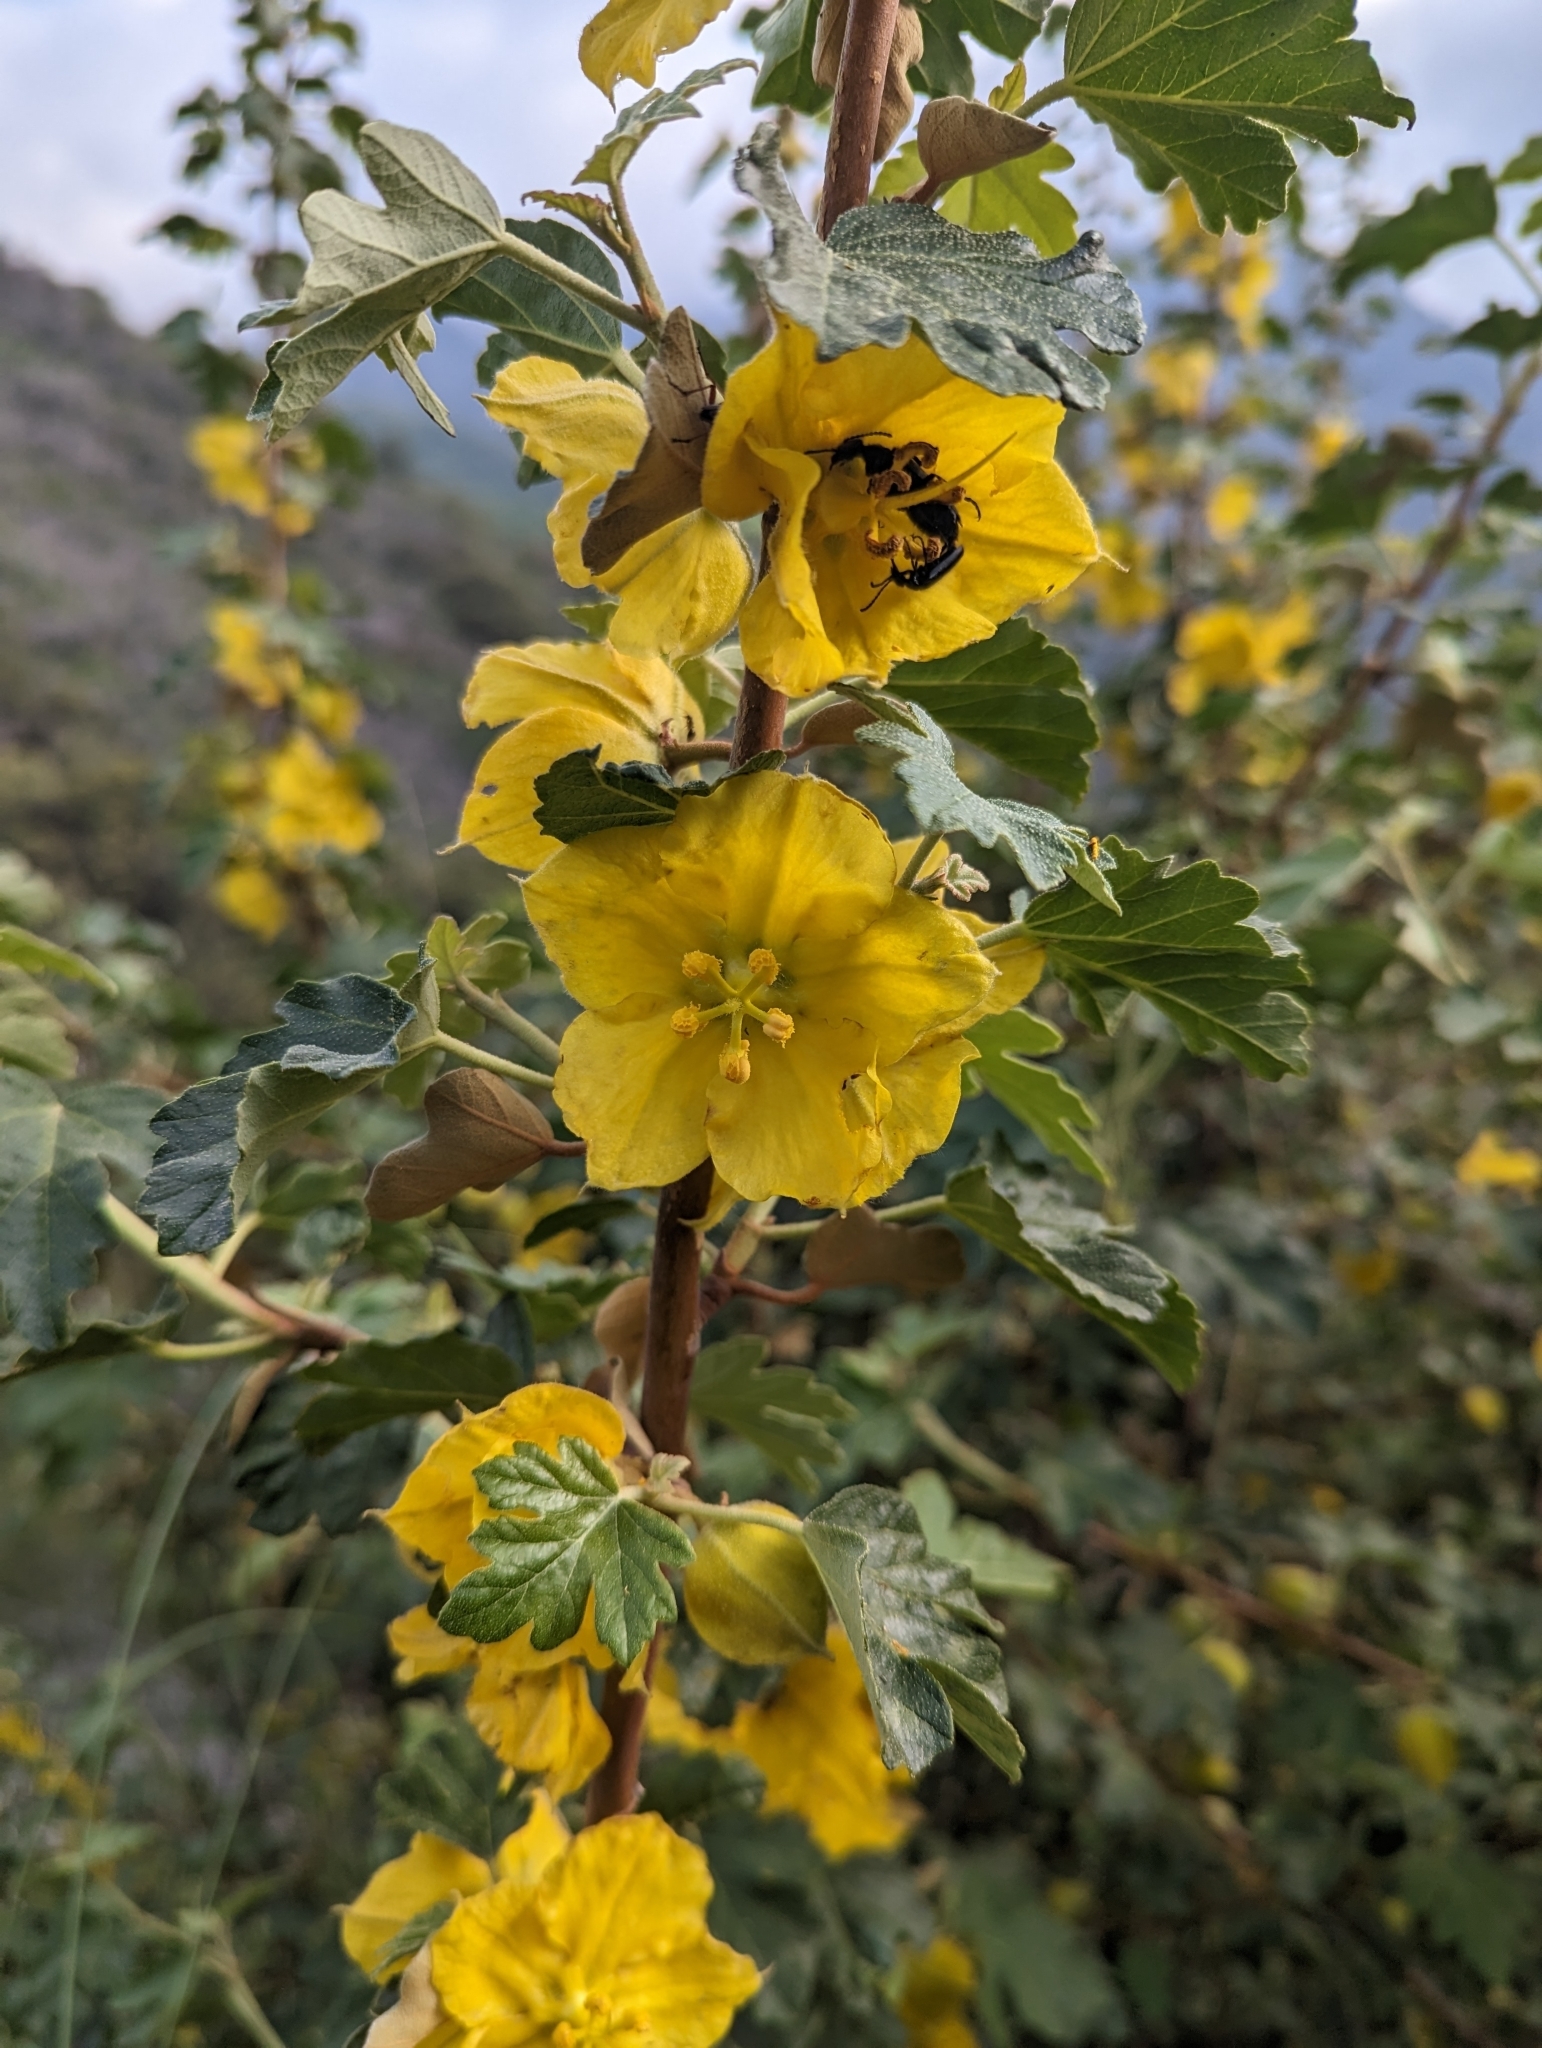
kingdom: Plantae
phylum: Tracheophyta
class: Magnoliopsida
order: Malvales
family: Malvaceae
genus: Fremontodendron
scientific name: Fremontodendron californicum
